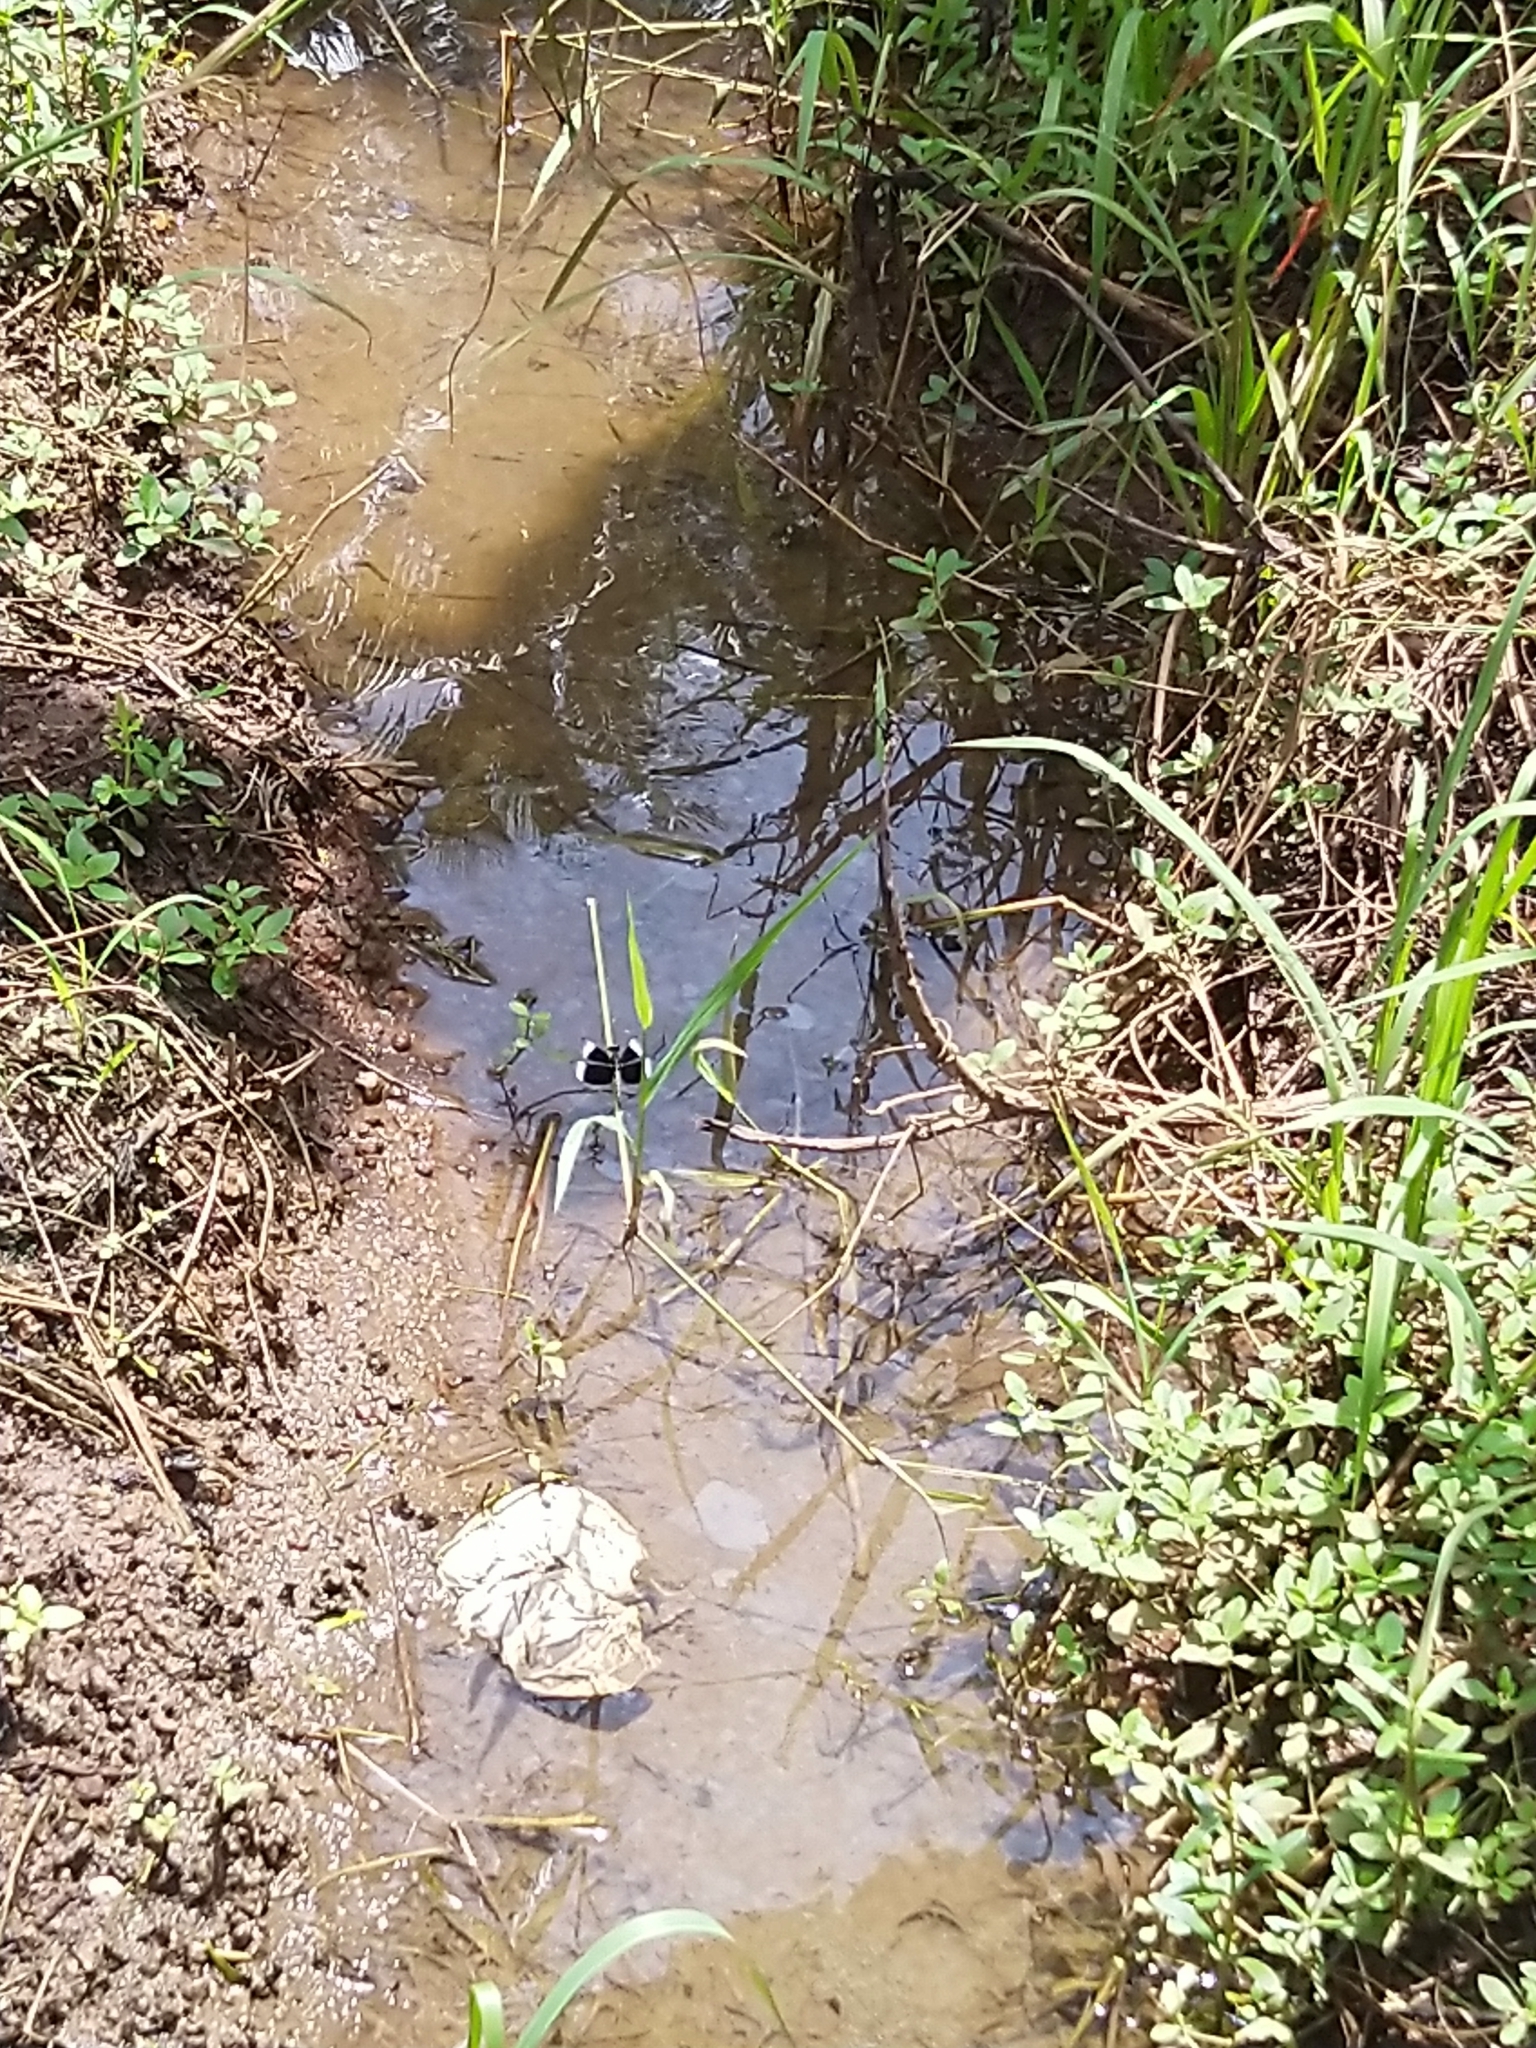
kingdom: Animalia
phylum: Arthropoda
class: Insecta
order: Odonata
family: Libellulidae
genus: Neurothemis
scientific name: Neurothemis tullia
